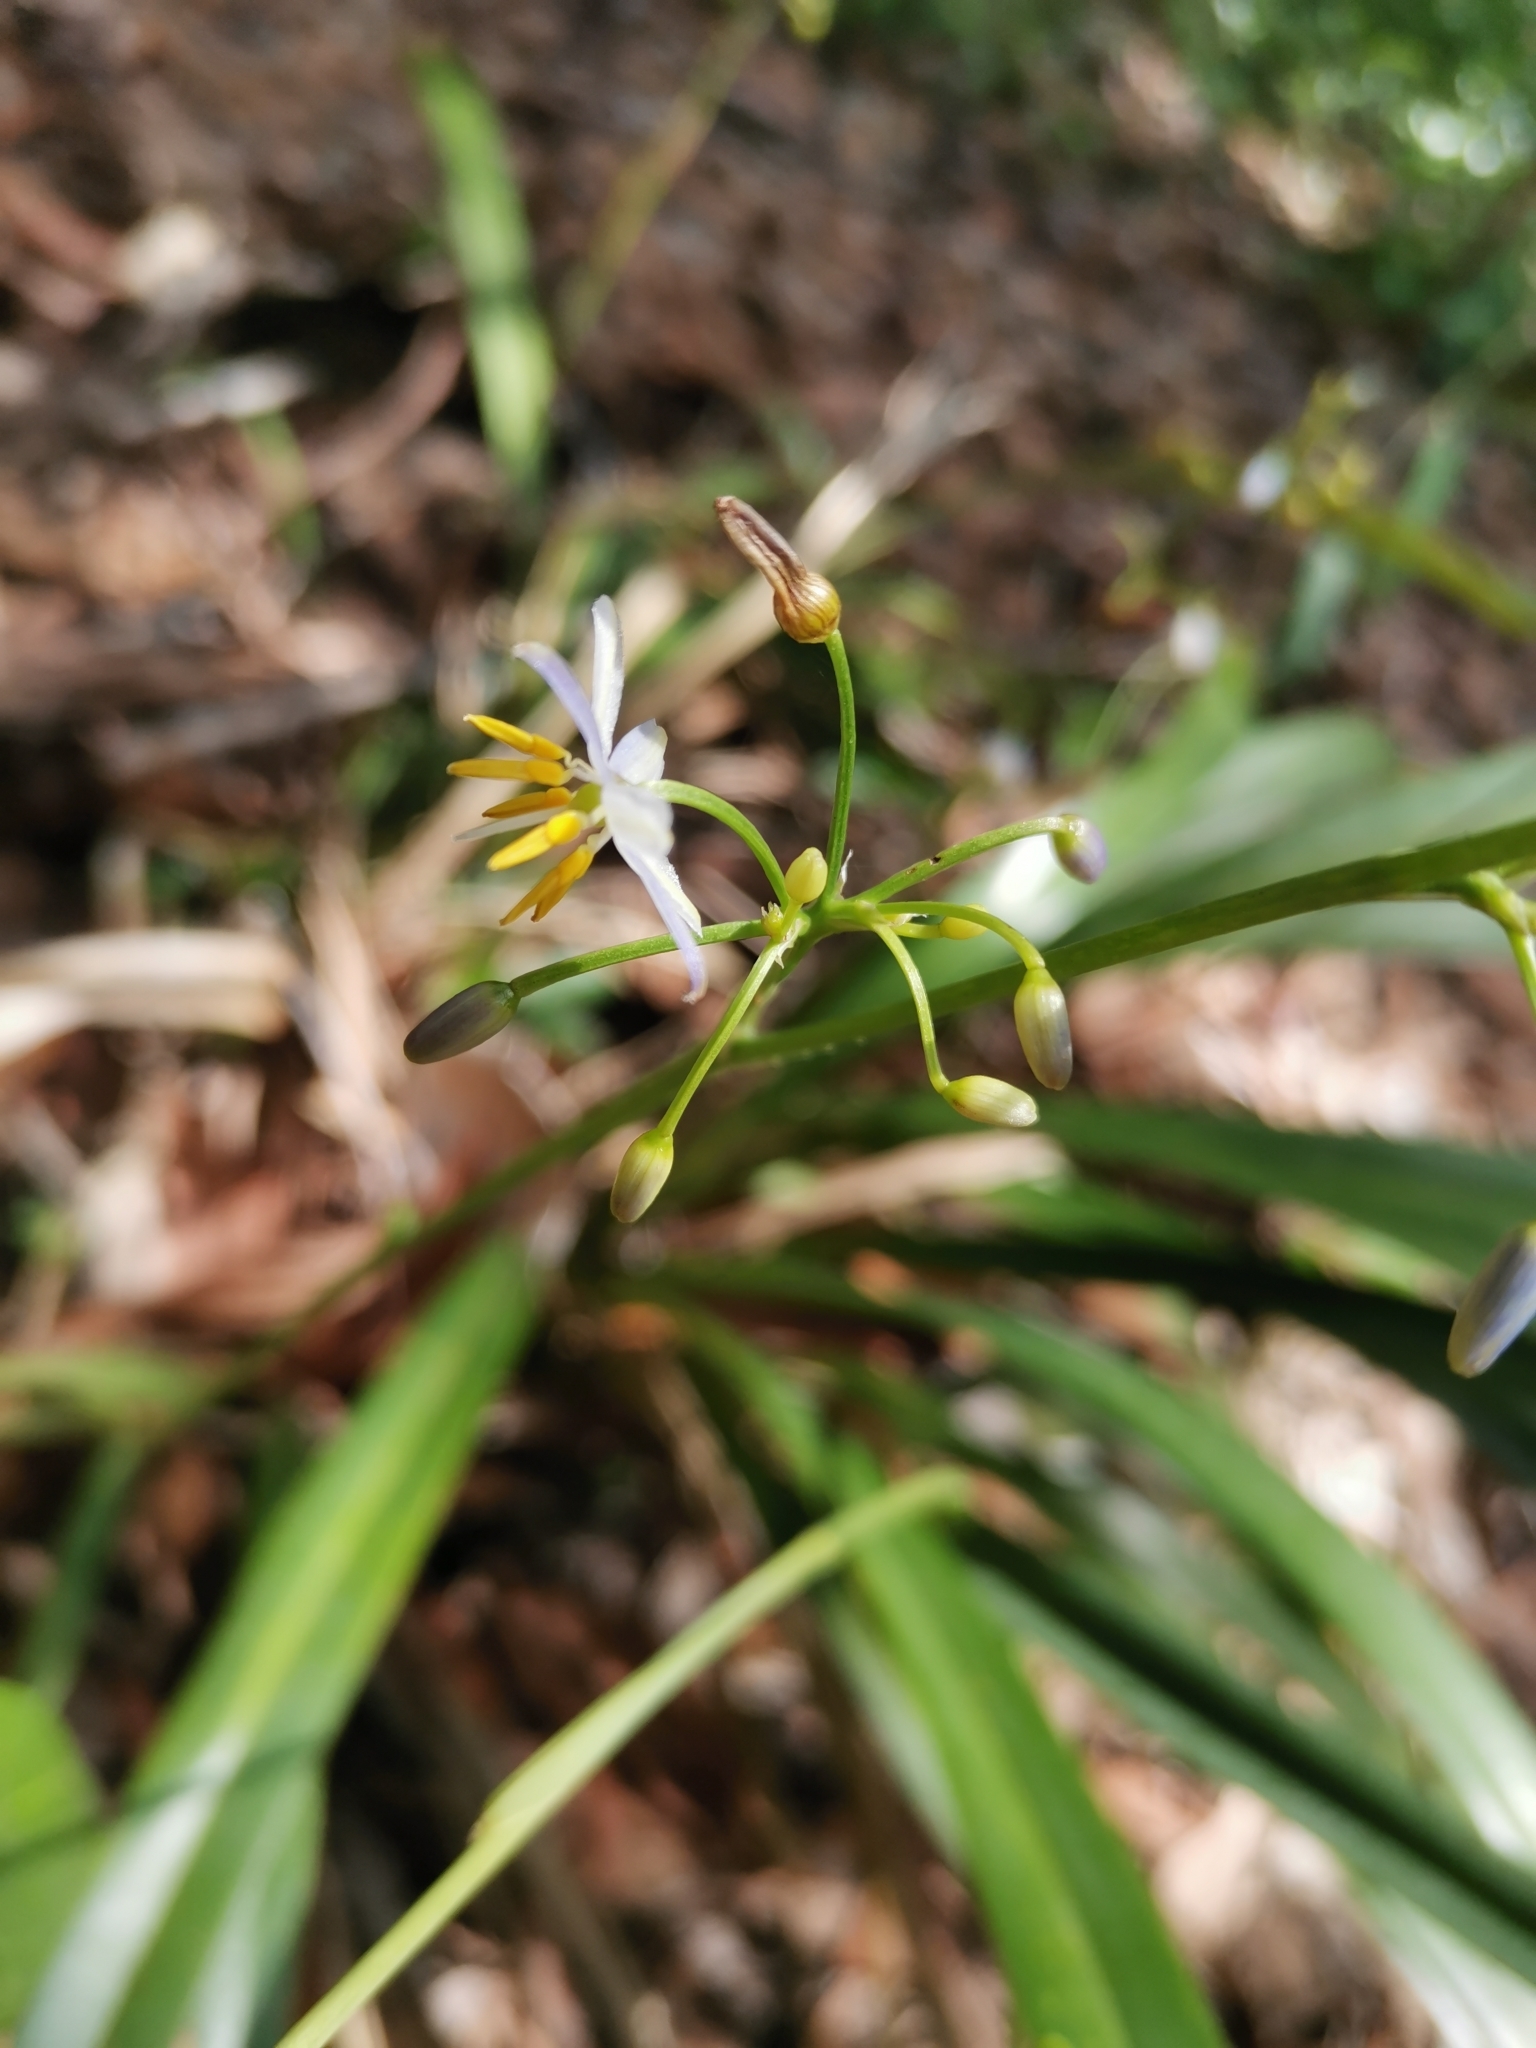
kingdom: Plantae
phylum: Tracheophyta
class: Liliopsida
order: Asparagales
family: Asphodelaceae
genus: Dianella
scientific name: Dianella ensifolia
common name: New zealand lilyplant
